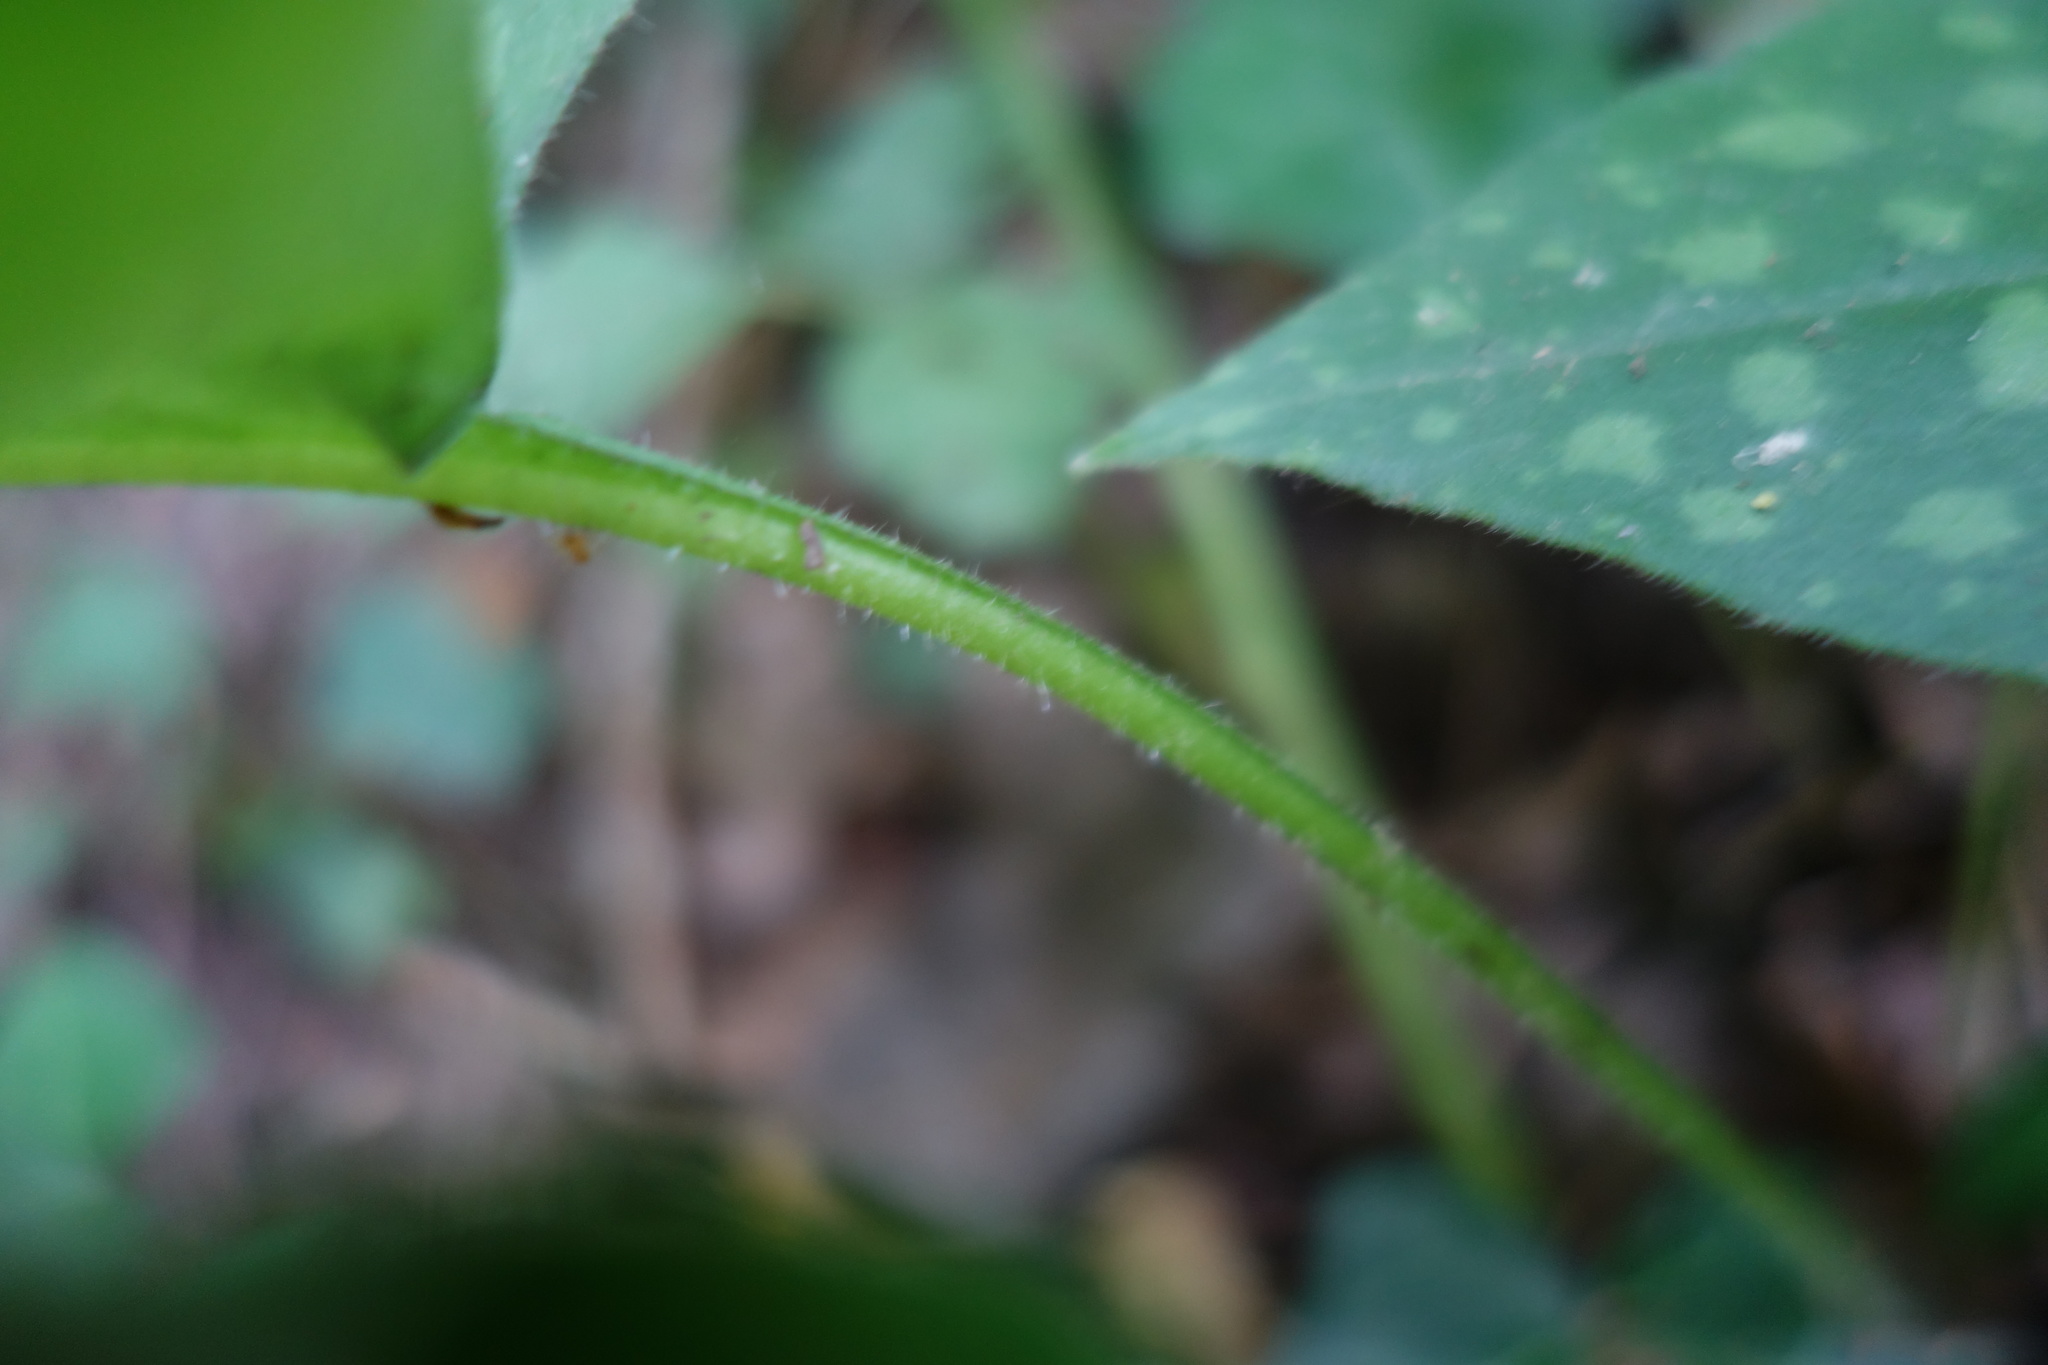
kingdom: Plantae
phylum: Tracheophyta
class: Magnoliopsida
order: Boraginales
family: Boraginaceae
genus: Pulmonaria
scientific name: Pulmonaria officinalis
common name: Lungwort
